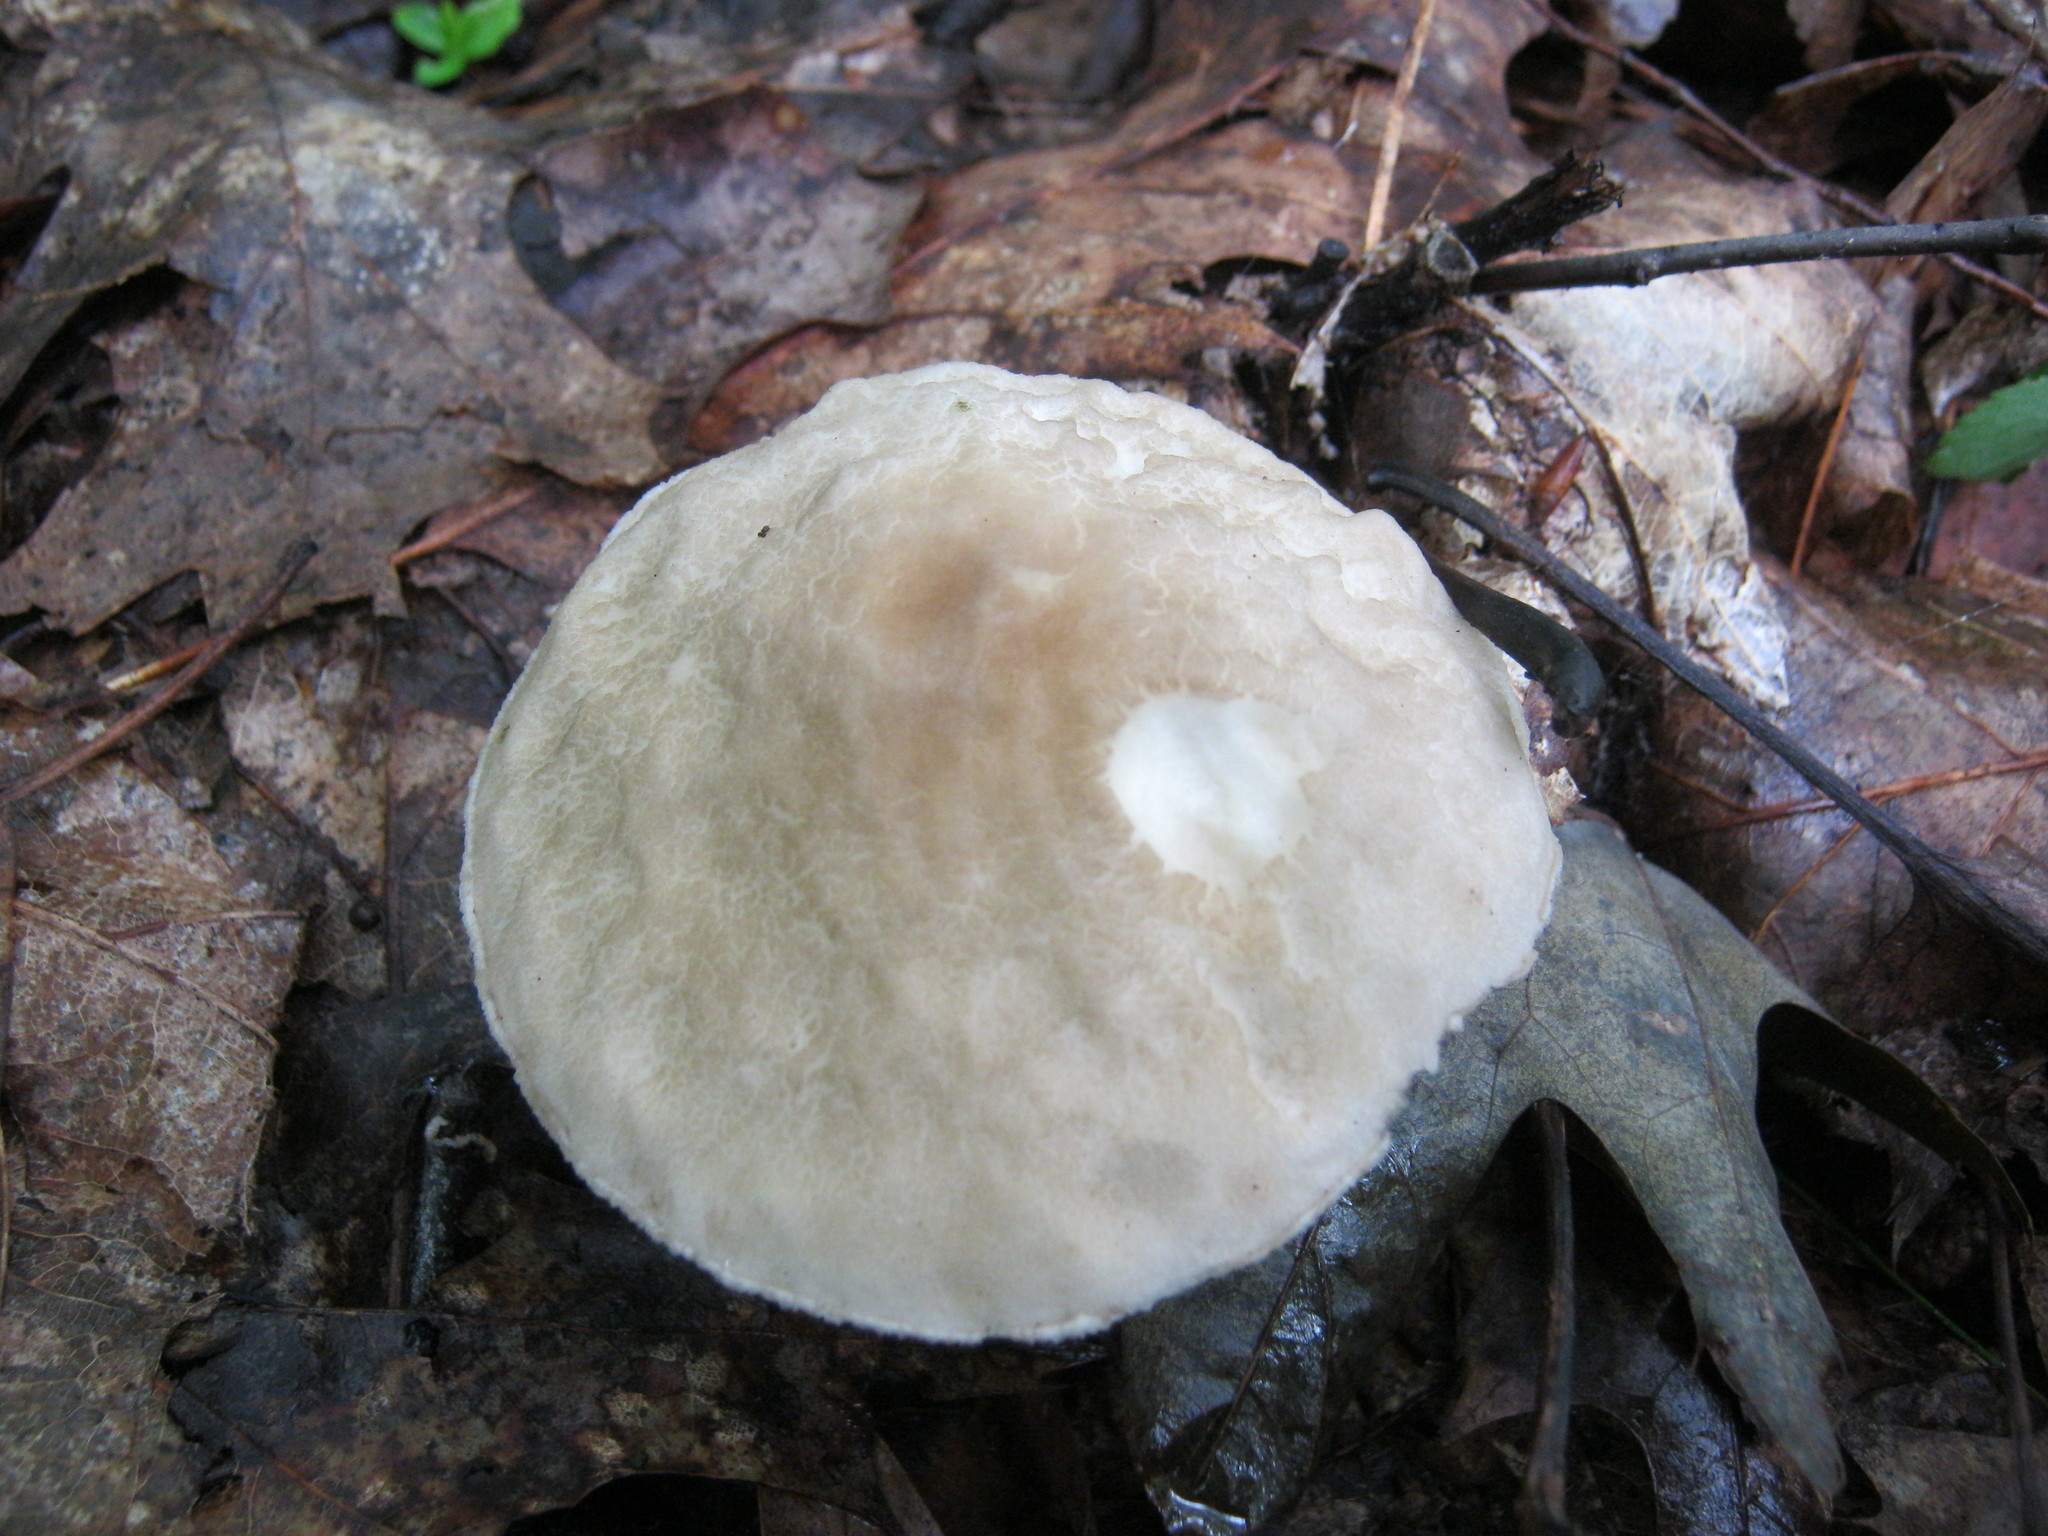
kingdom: Fungi
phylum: Basidiomycota
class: Agaricomycetes
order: Boletales
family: Boletaceae
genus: Leccinellum
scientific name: Leccinellum albellum
